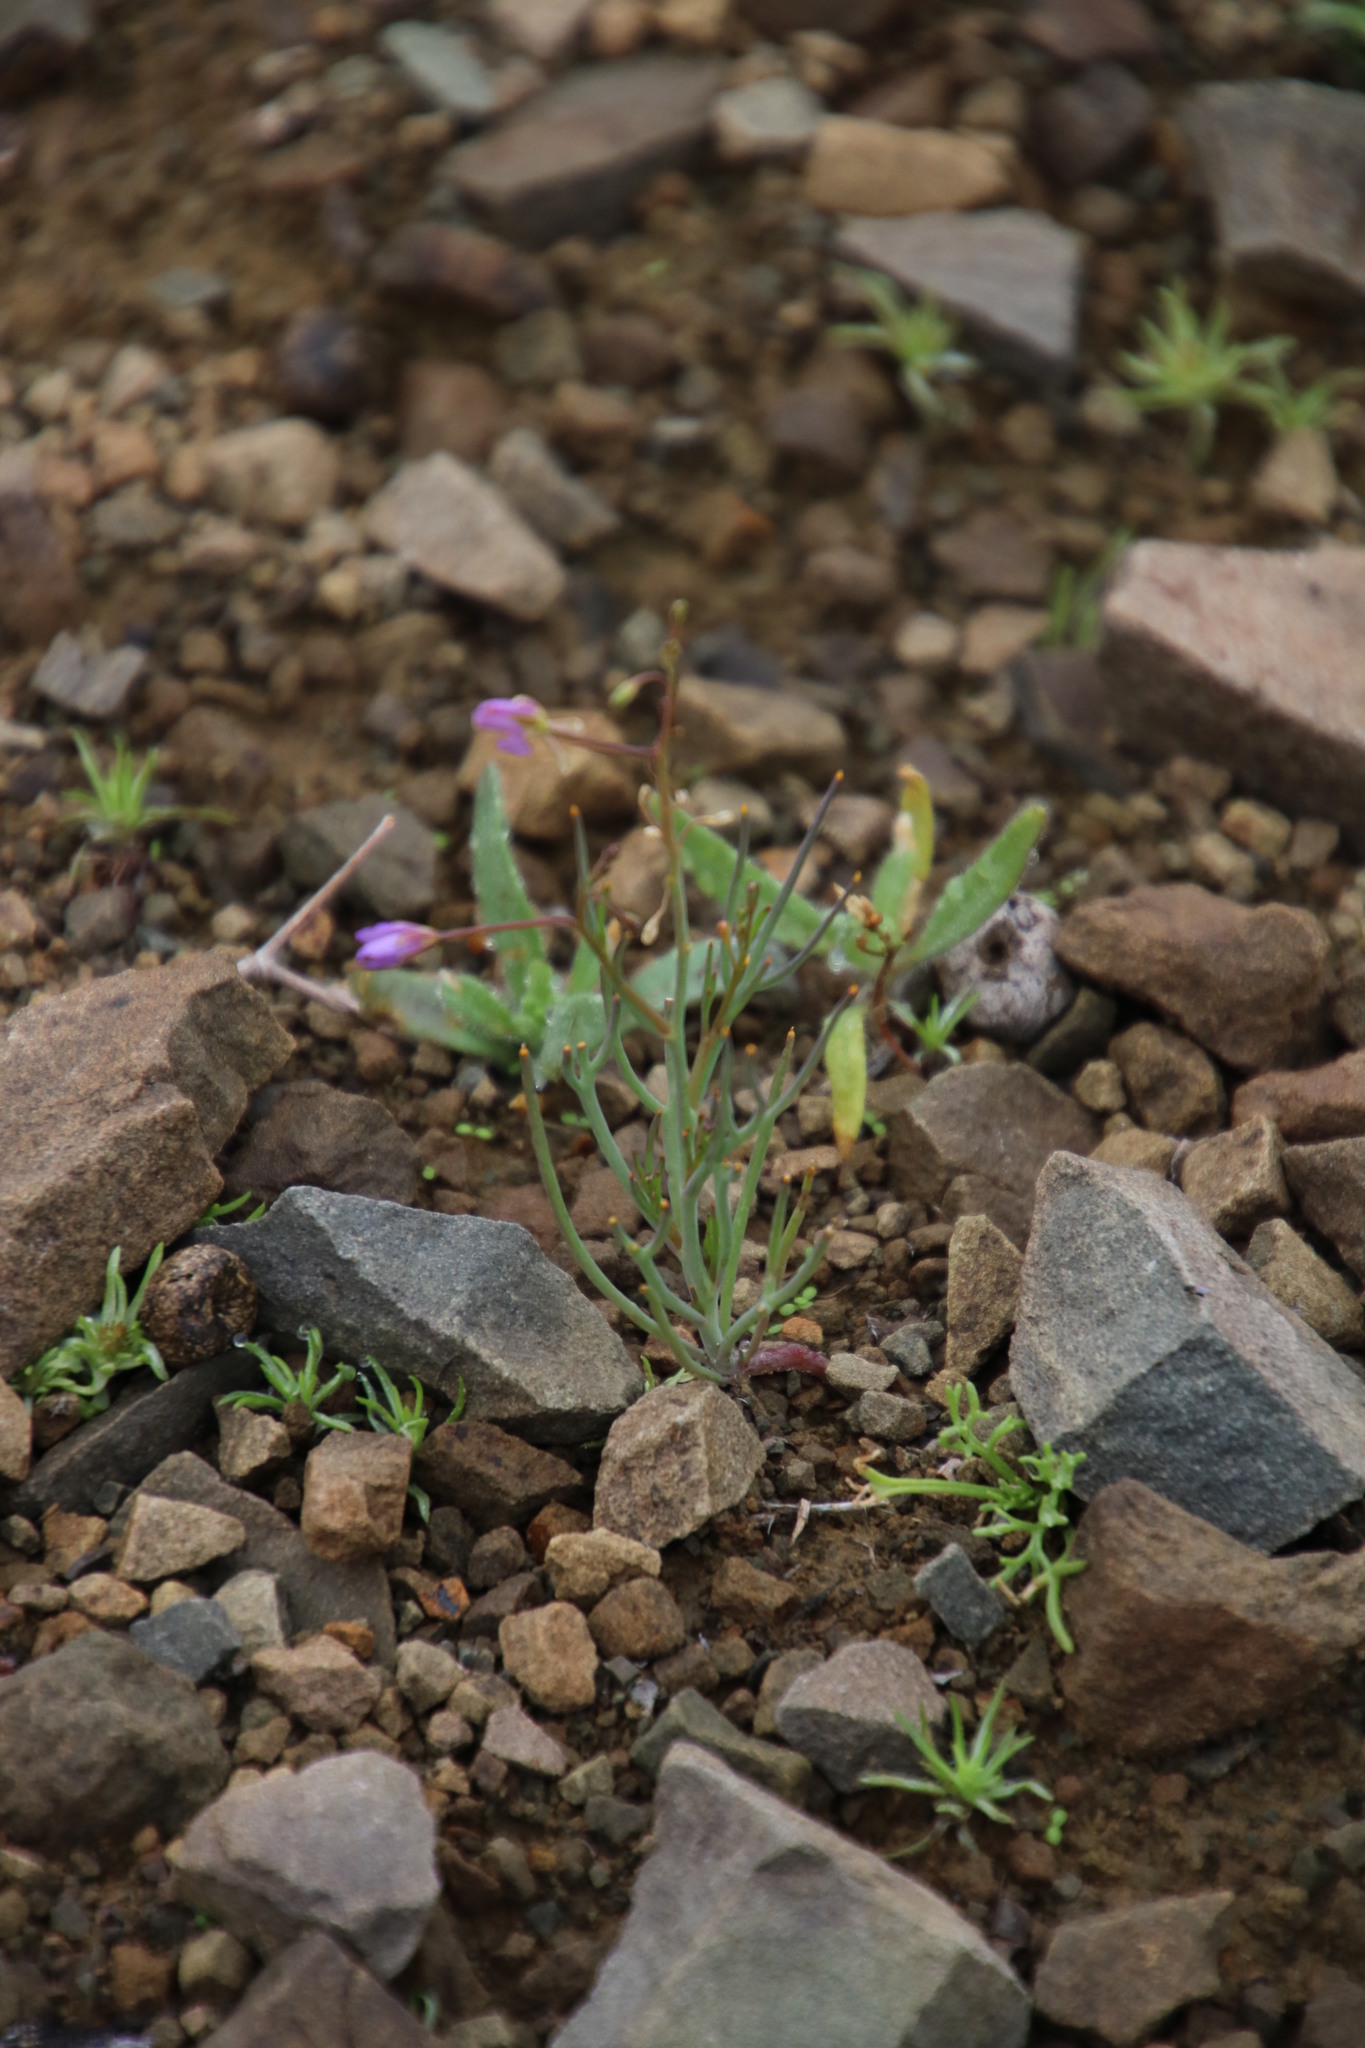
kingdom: Plantae
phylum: Tracheophyta
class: Magnoliopsida
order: Brassicales
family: Brassicaceae
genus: Heliophila
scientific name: Heliophila trifurca
